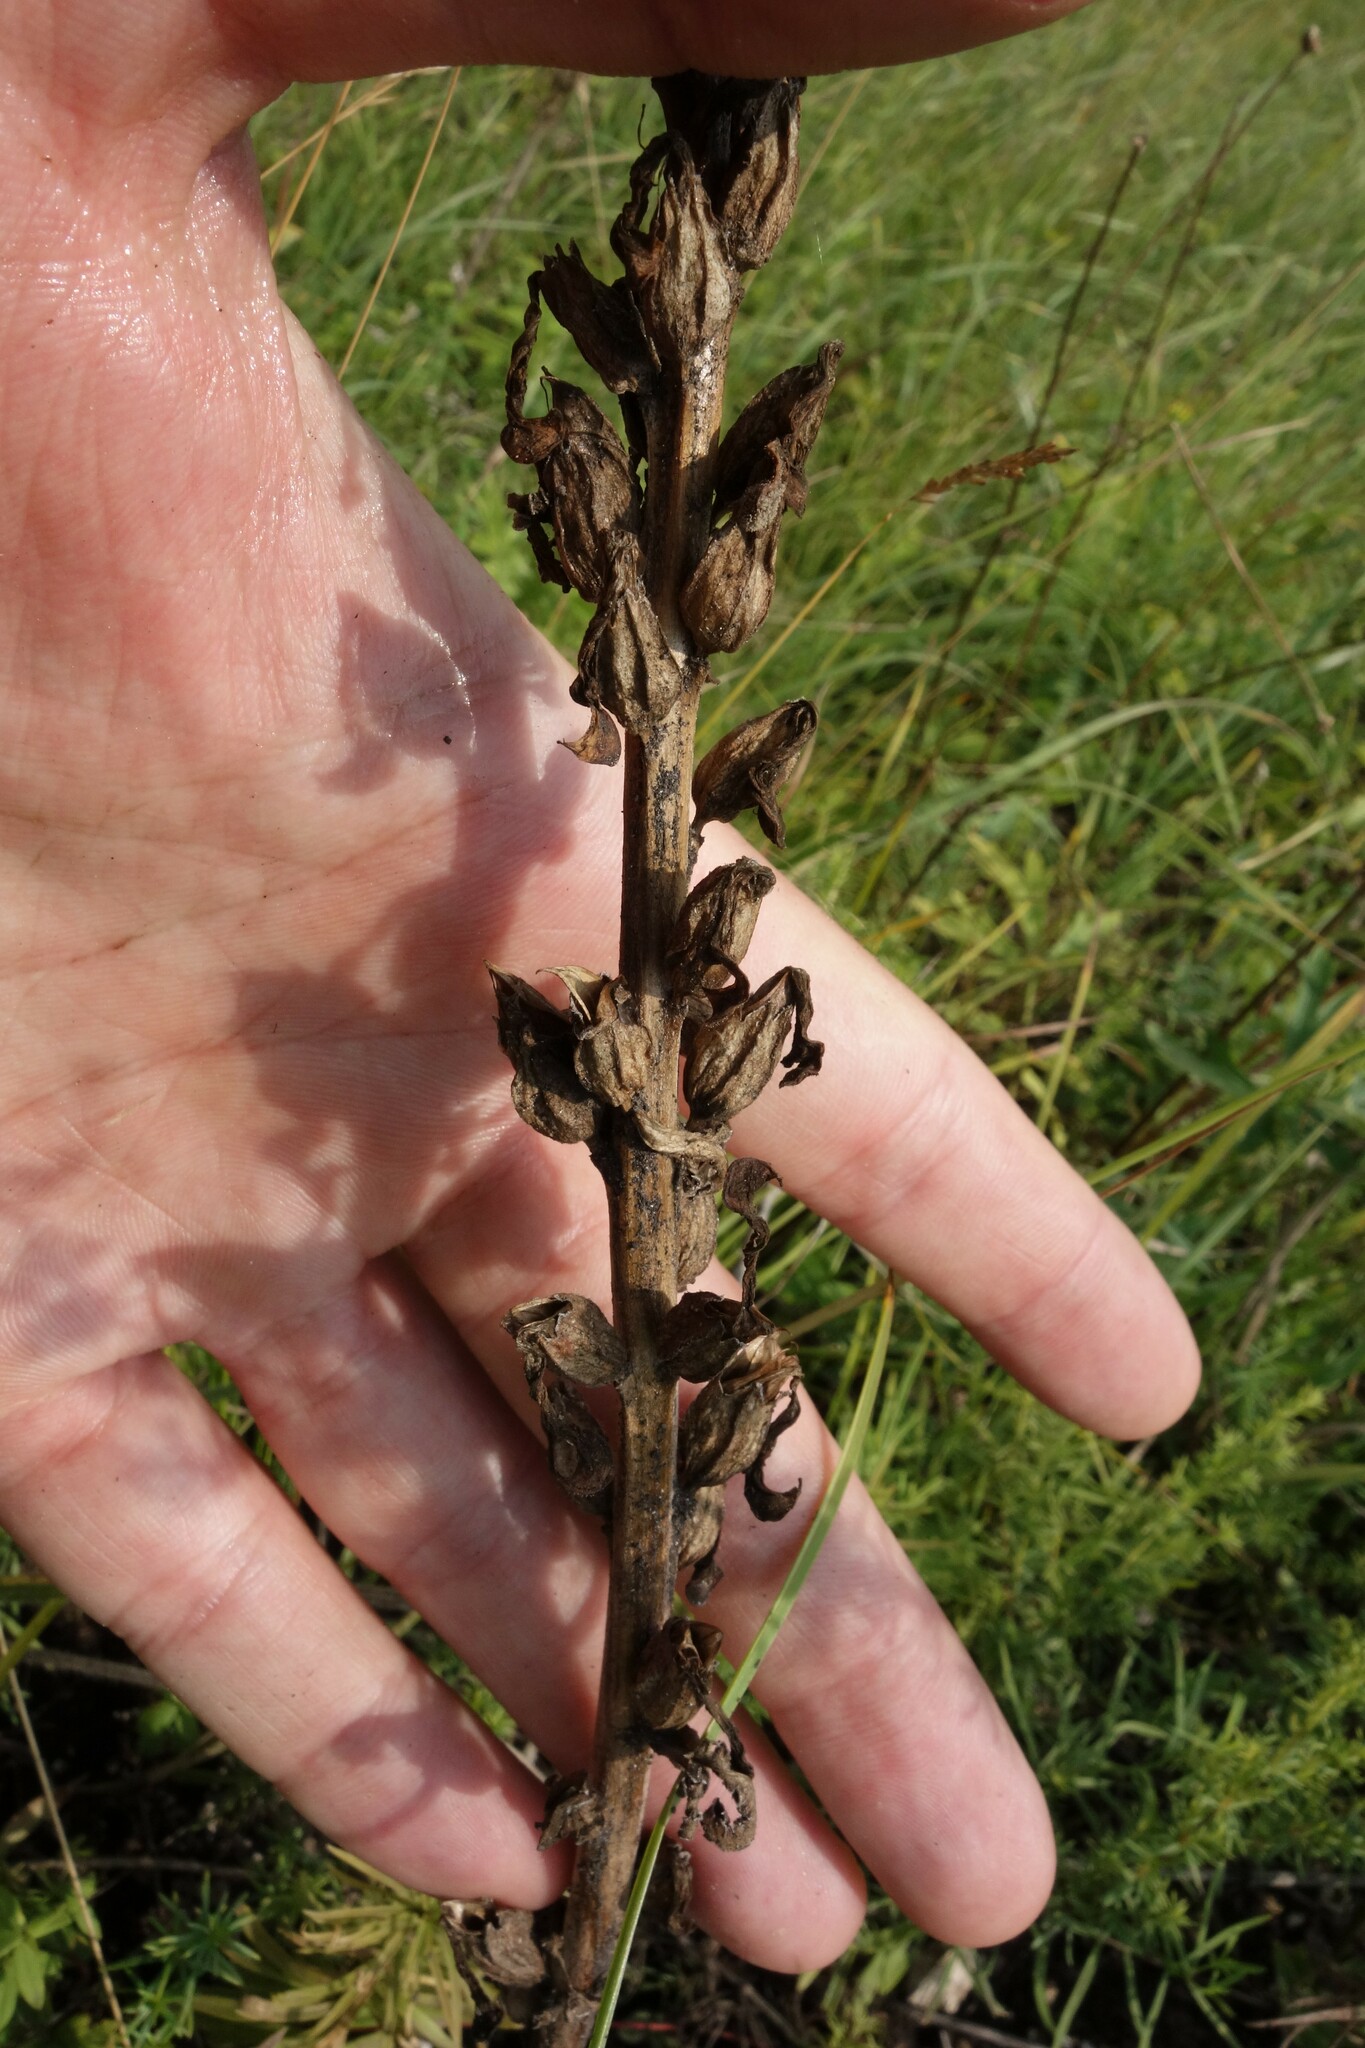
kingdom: Plantae
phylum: Tracheophyta
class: Magnoliopsida
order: Lamiales
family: Orobanchaceae
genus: Pedicularis
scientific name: Pedicularis kaufmannii
